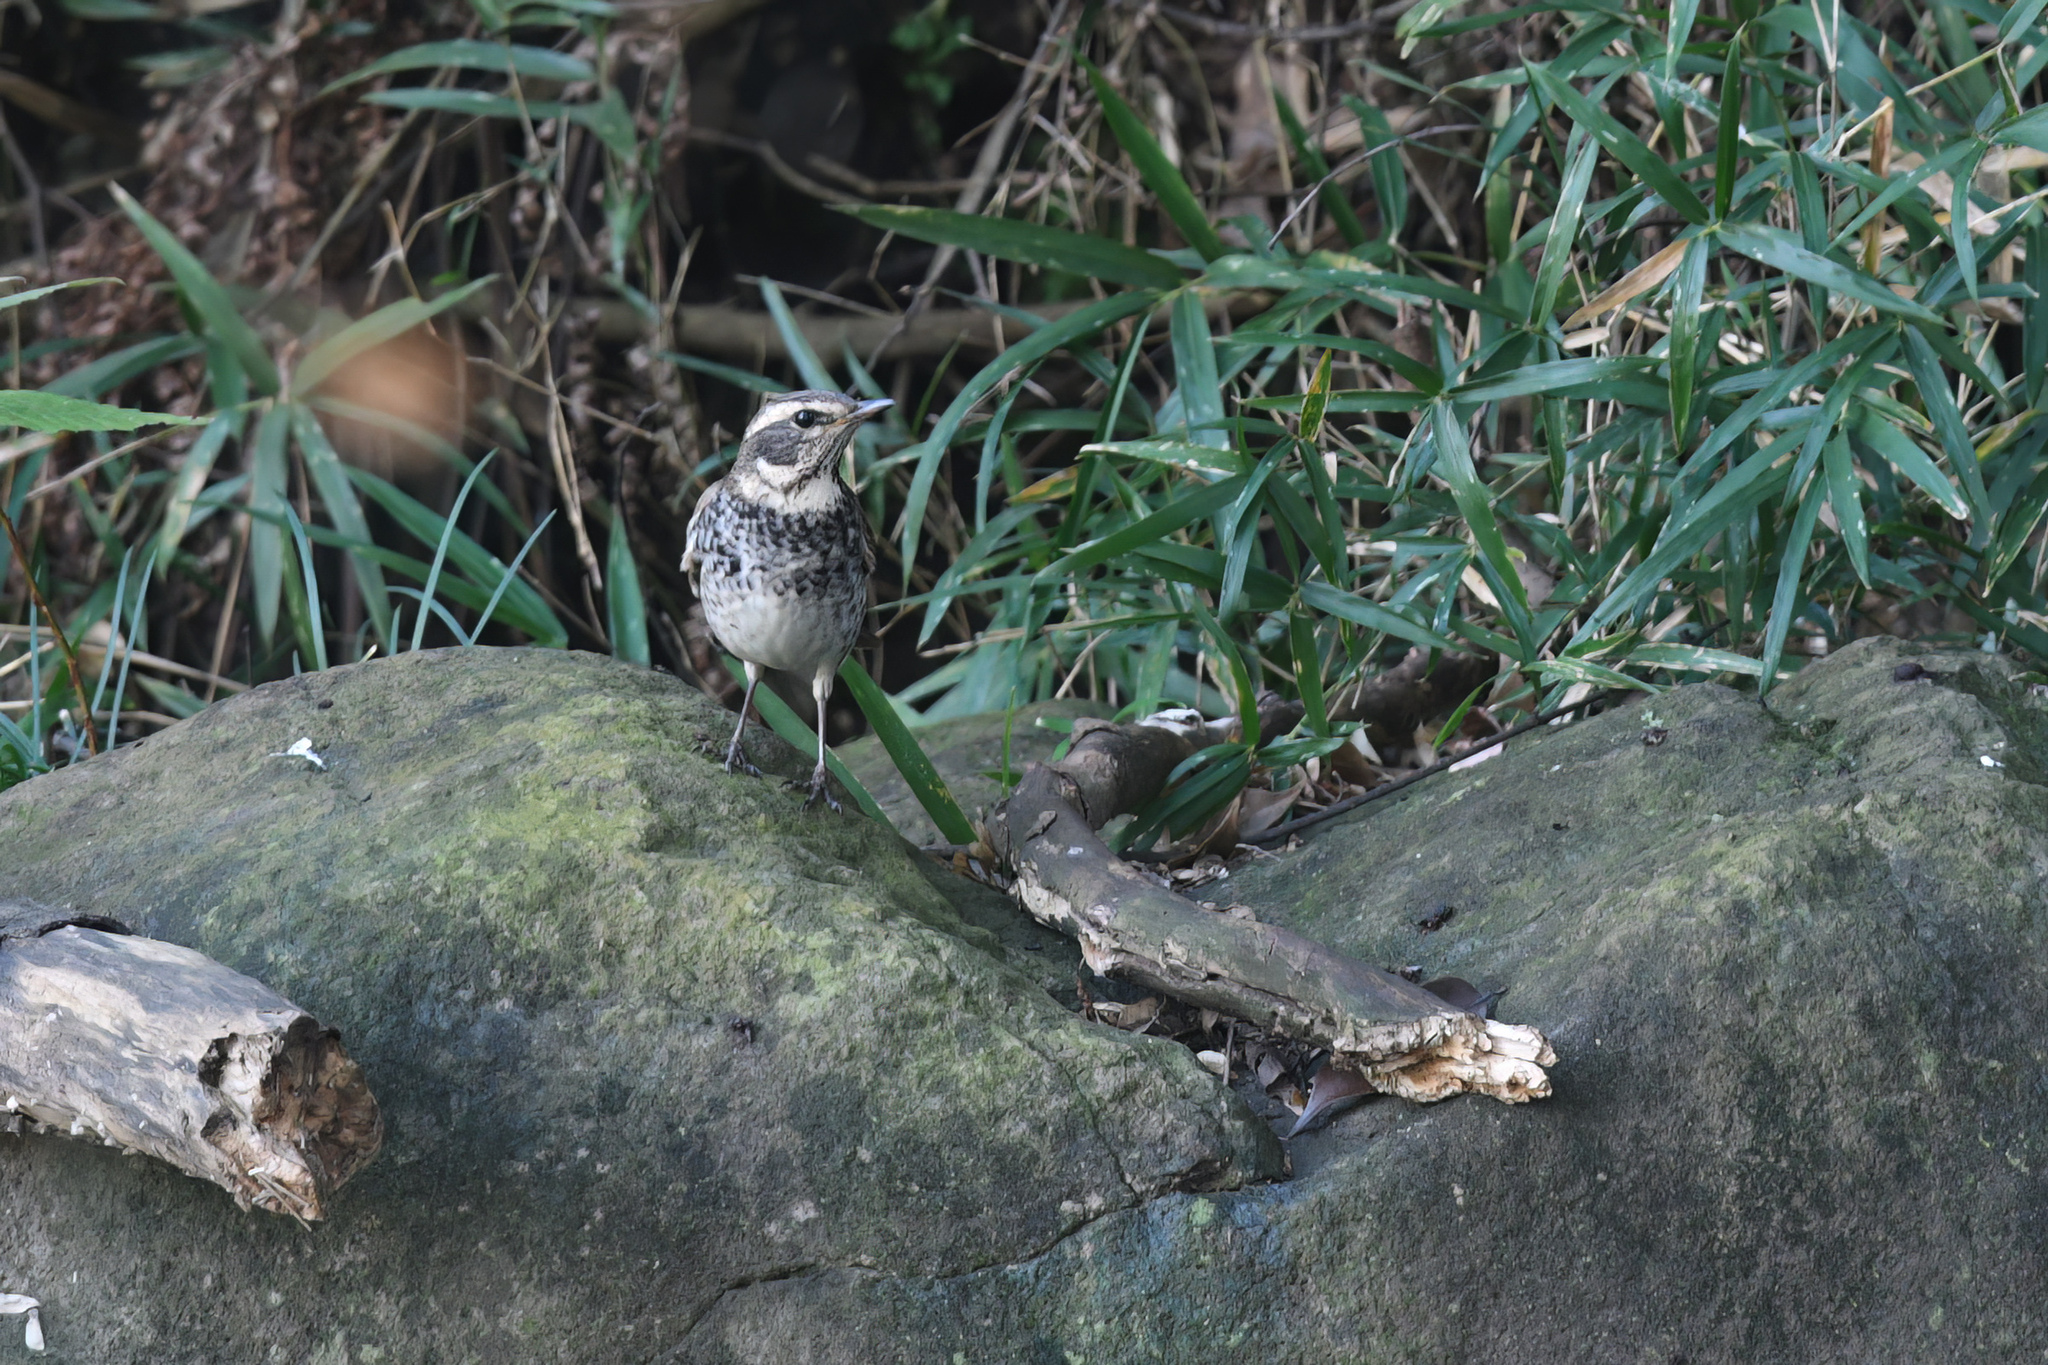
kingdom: Animalia
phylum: Chordata
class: Aves
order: Passeriformes
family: Turdidae
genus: Turdus
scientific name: Turdus eunomus
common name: Dusky thrush
